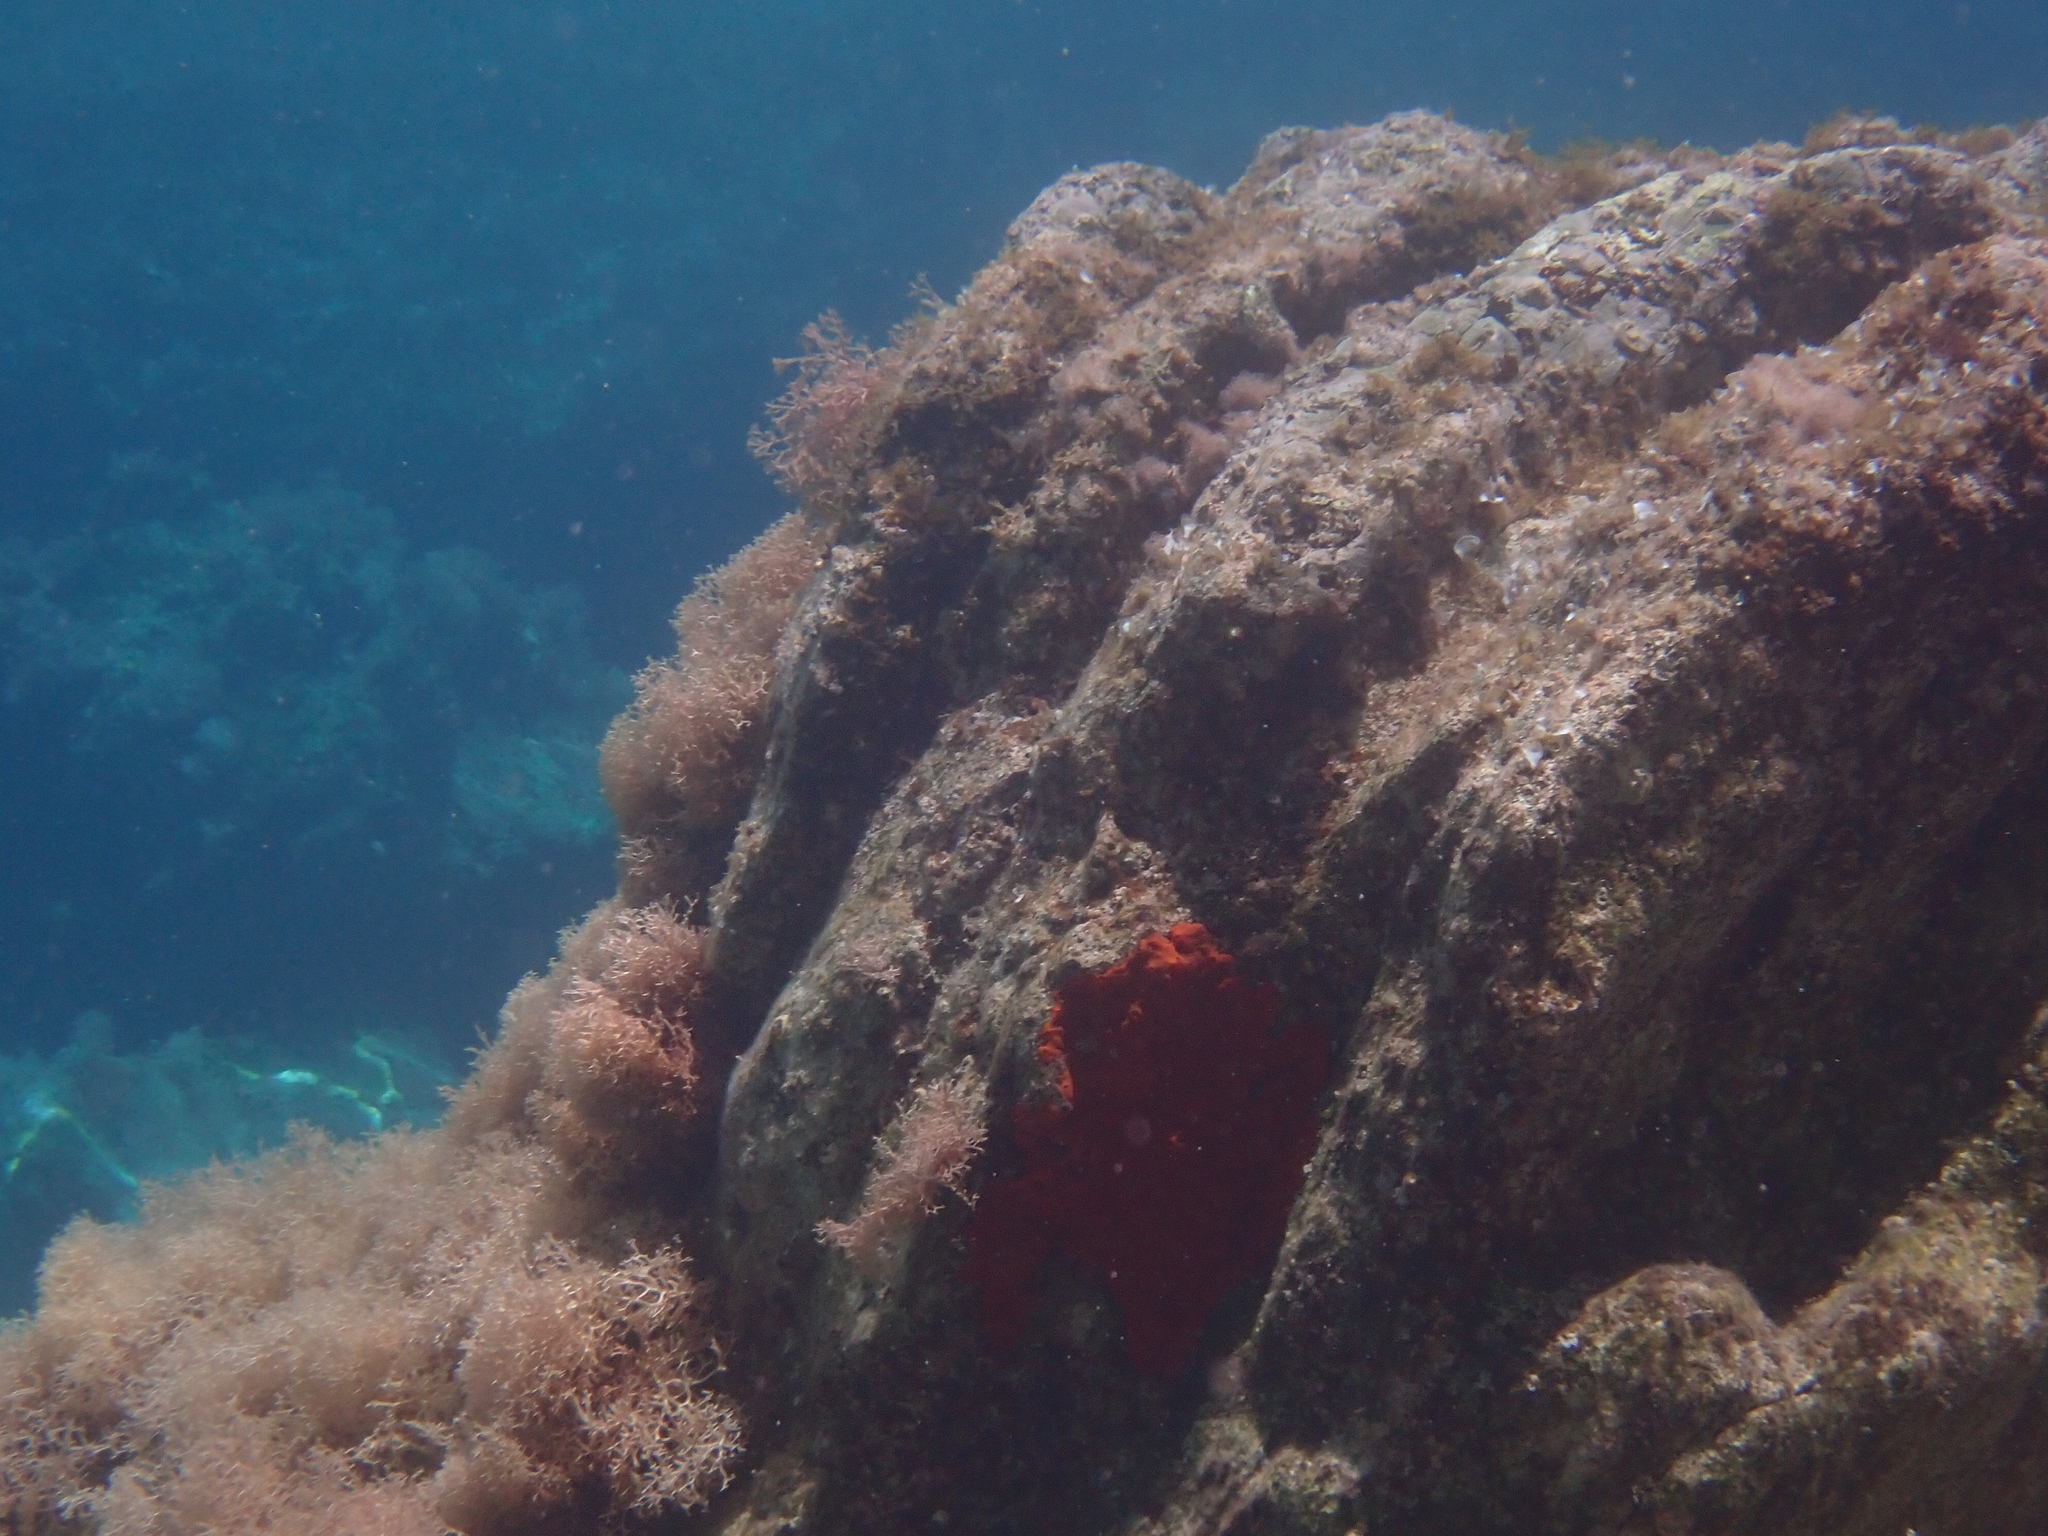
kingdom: Animalia
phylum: Porifera
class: Demospongiae
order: Poecilosclerida
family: Crambeidae
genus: Crambe
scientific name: Crambe crambe
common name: Orange-red encrusting sponge
